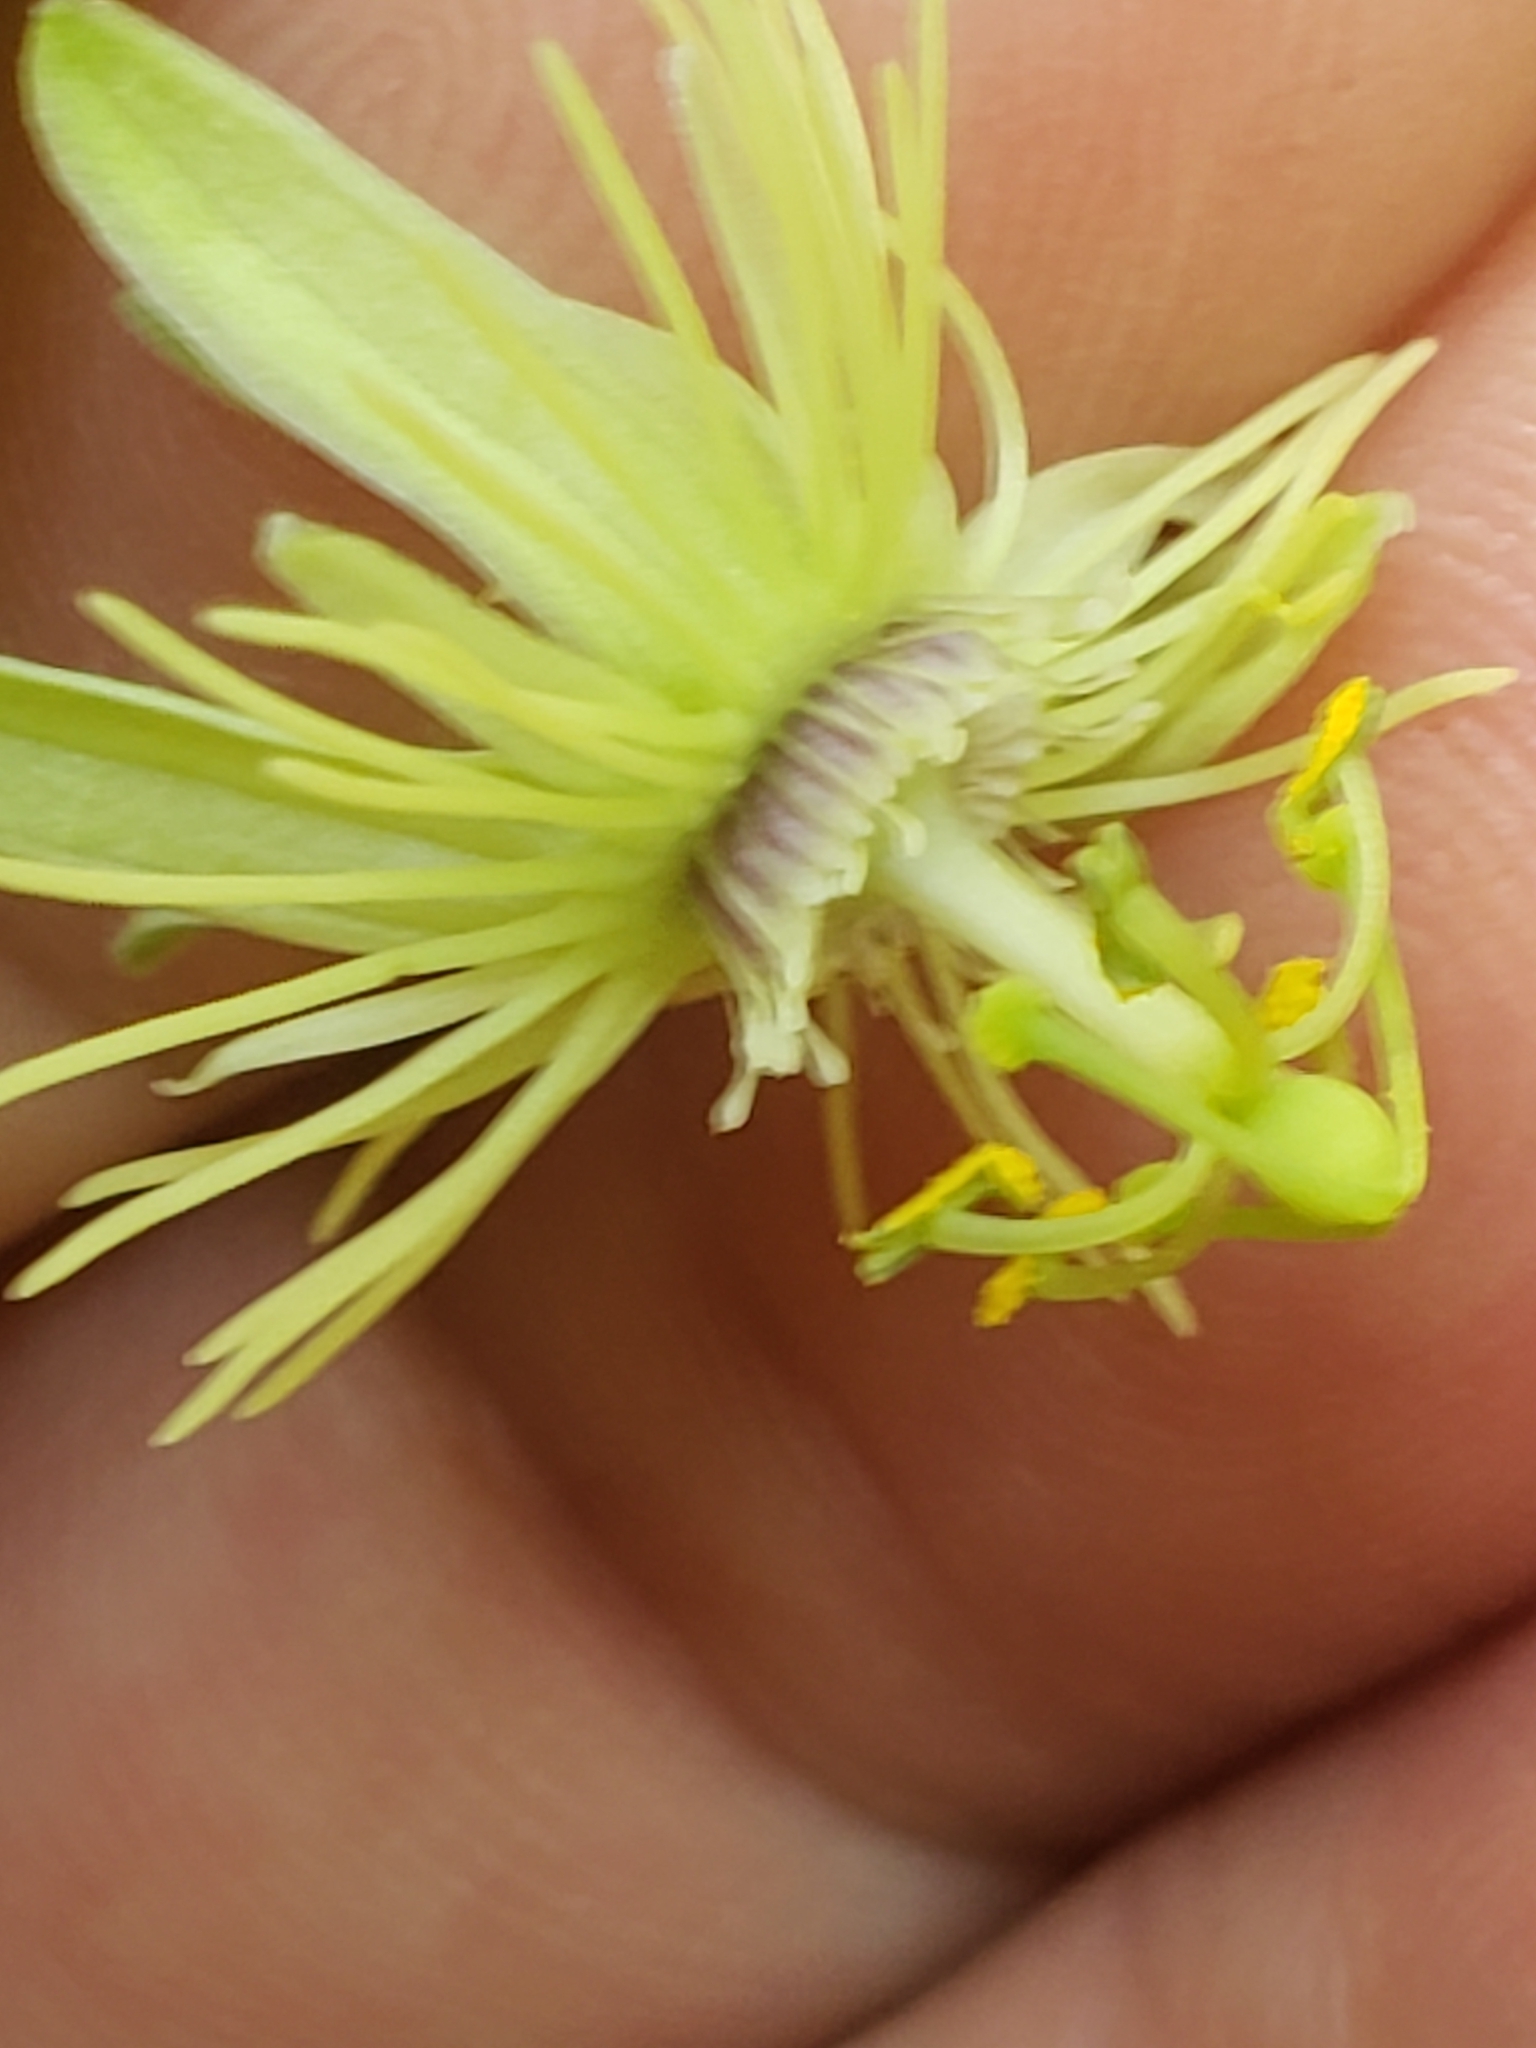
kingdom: Plantae
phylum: Tracheophyta
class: Magnoliopsida
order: Malpighiales
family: Passifloraceae
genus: Passiflora
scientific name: Passiflora lutea
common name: Yellow passionflower
